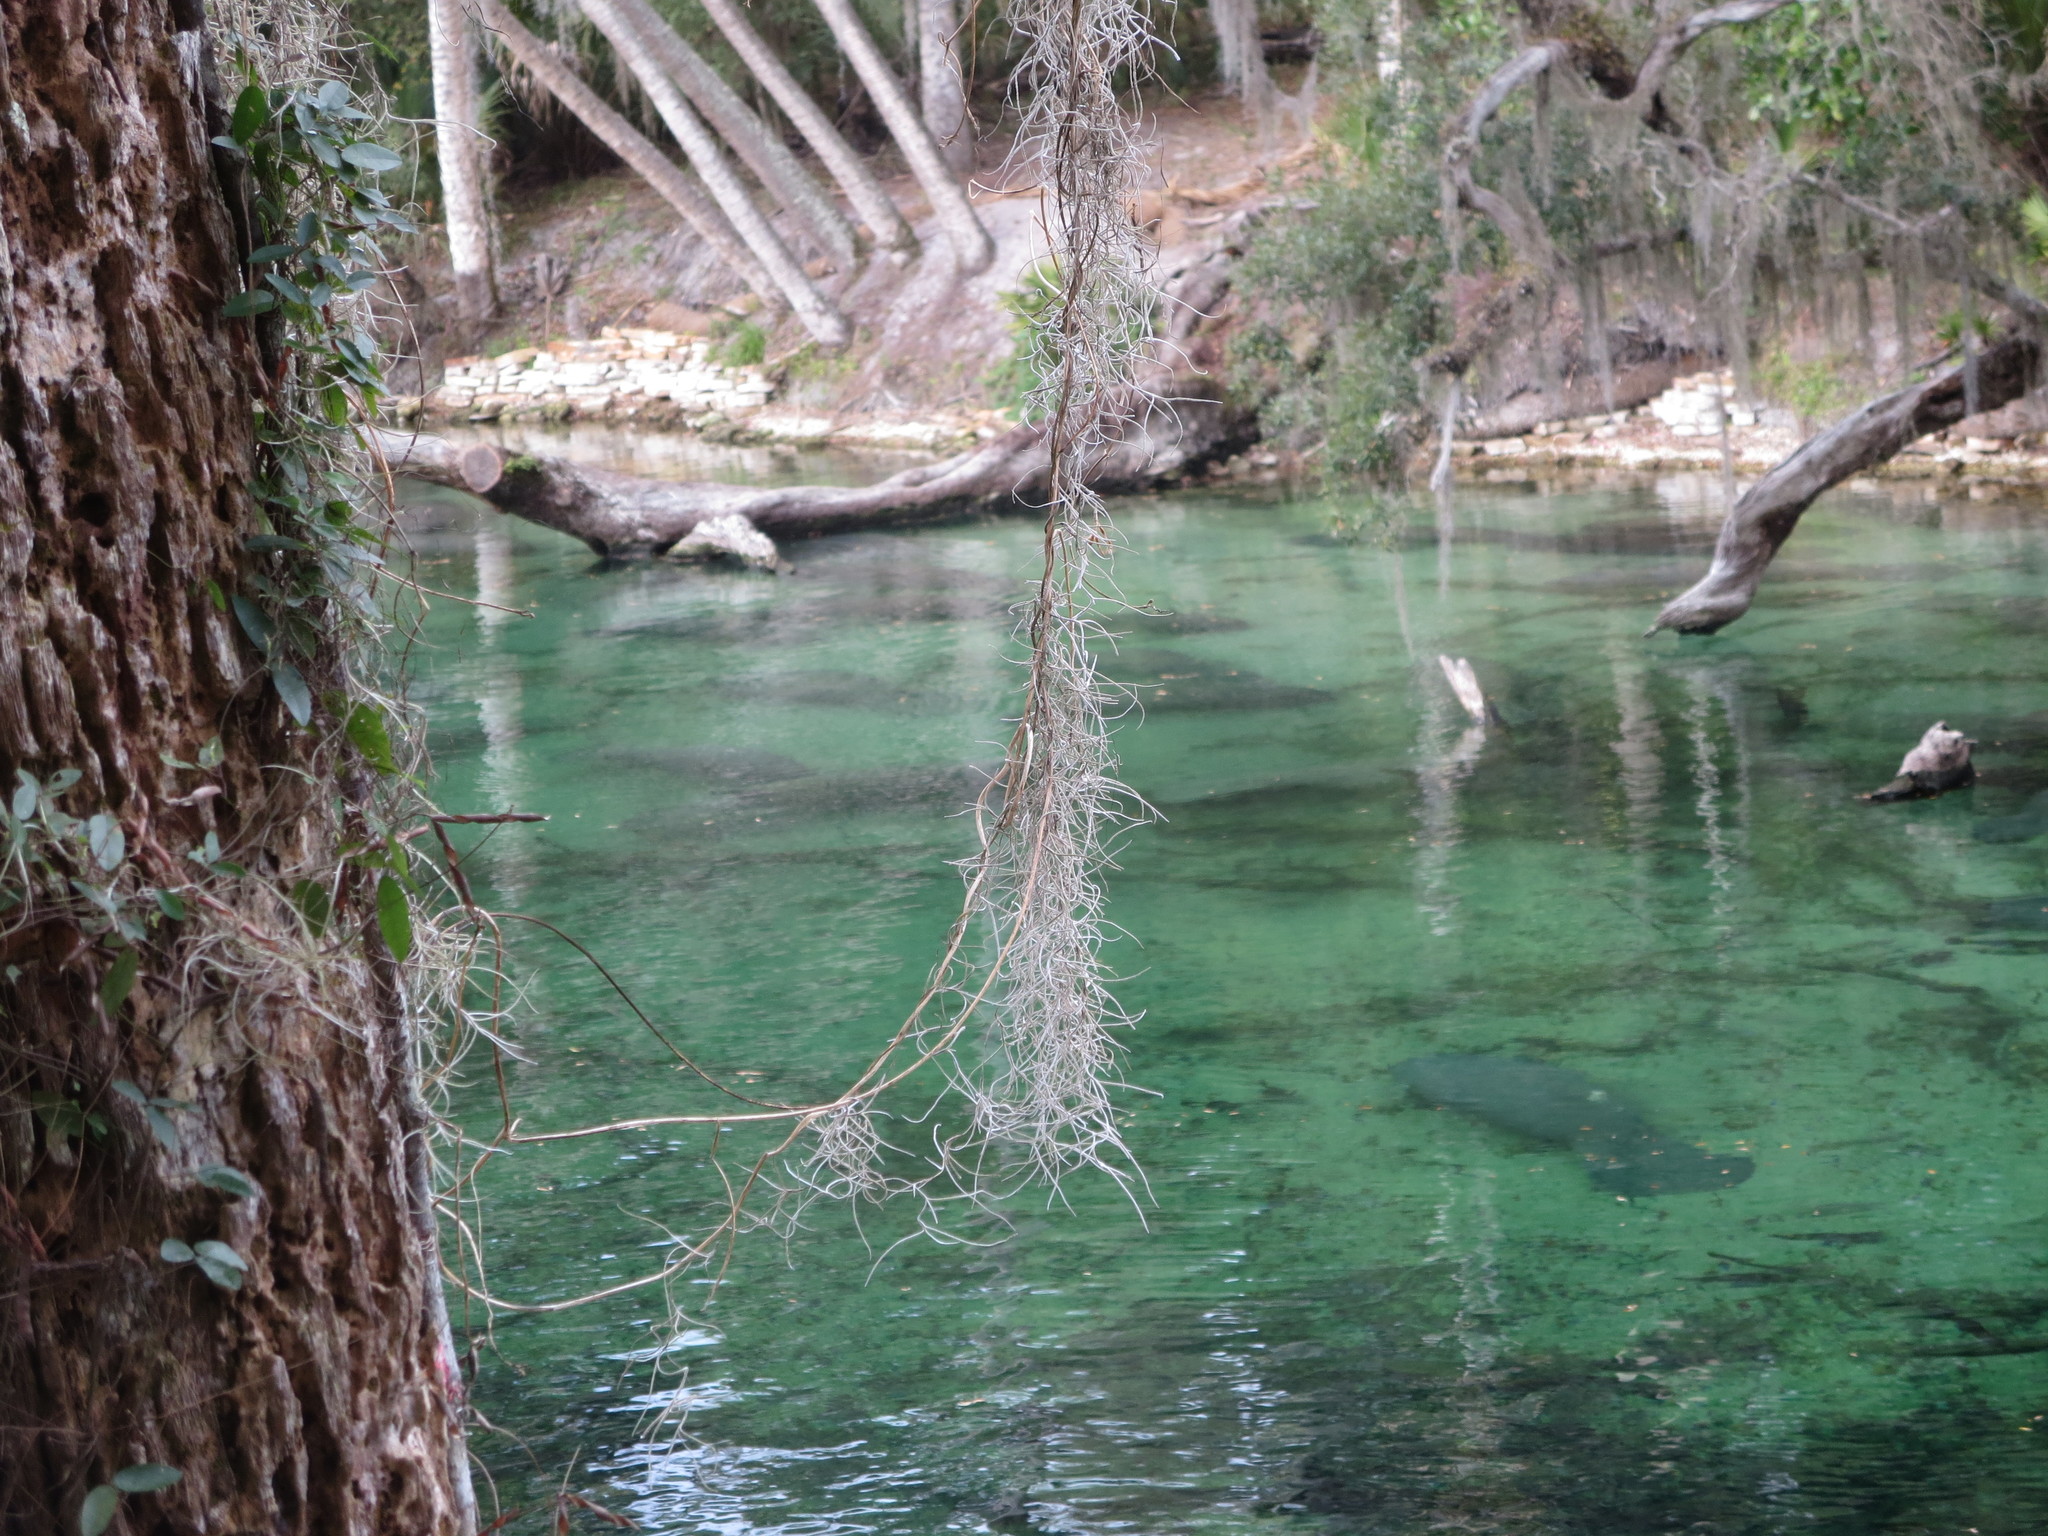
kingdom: Animalia
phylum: Chordata
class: Mammalia
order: Sirenia
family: Trichechidae
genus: Trichechus
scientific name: Trichechus manatus
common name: West indian manatee
